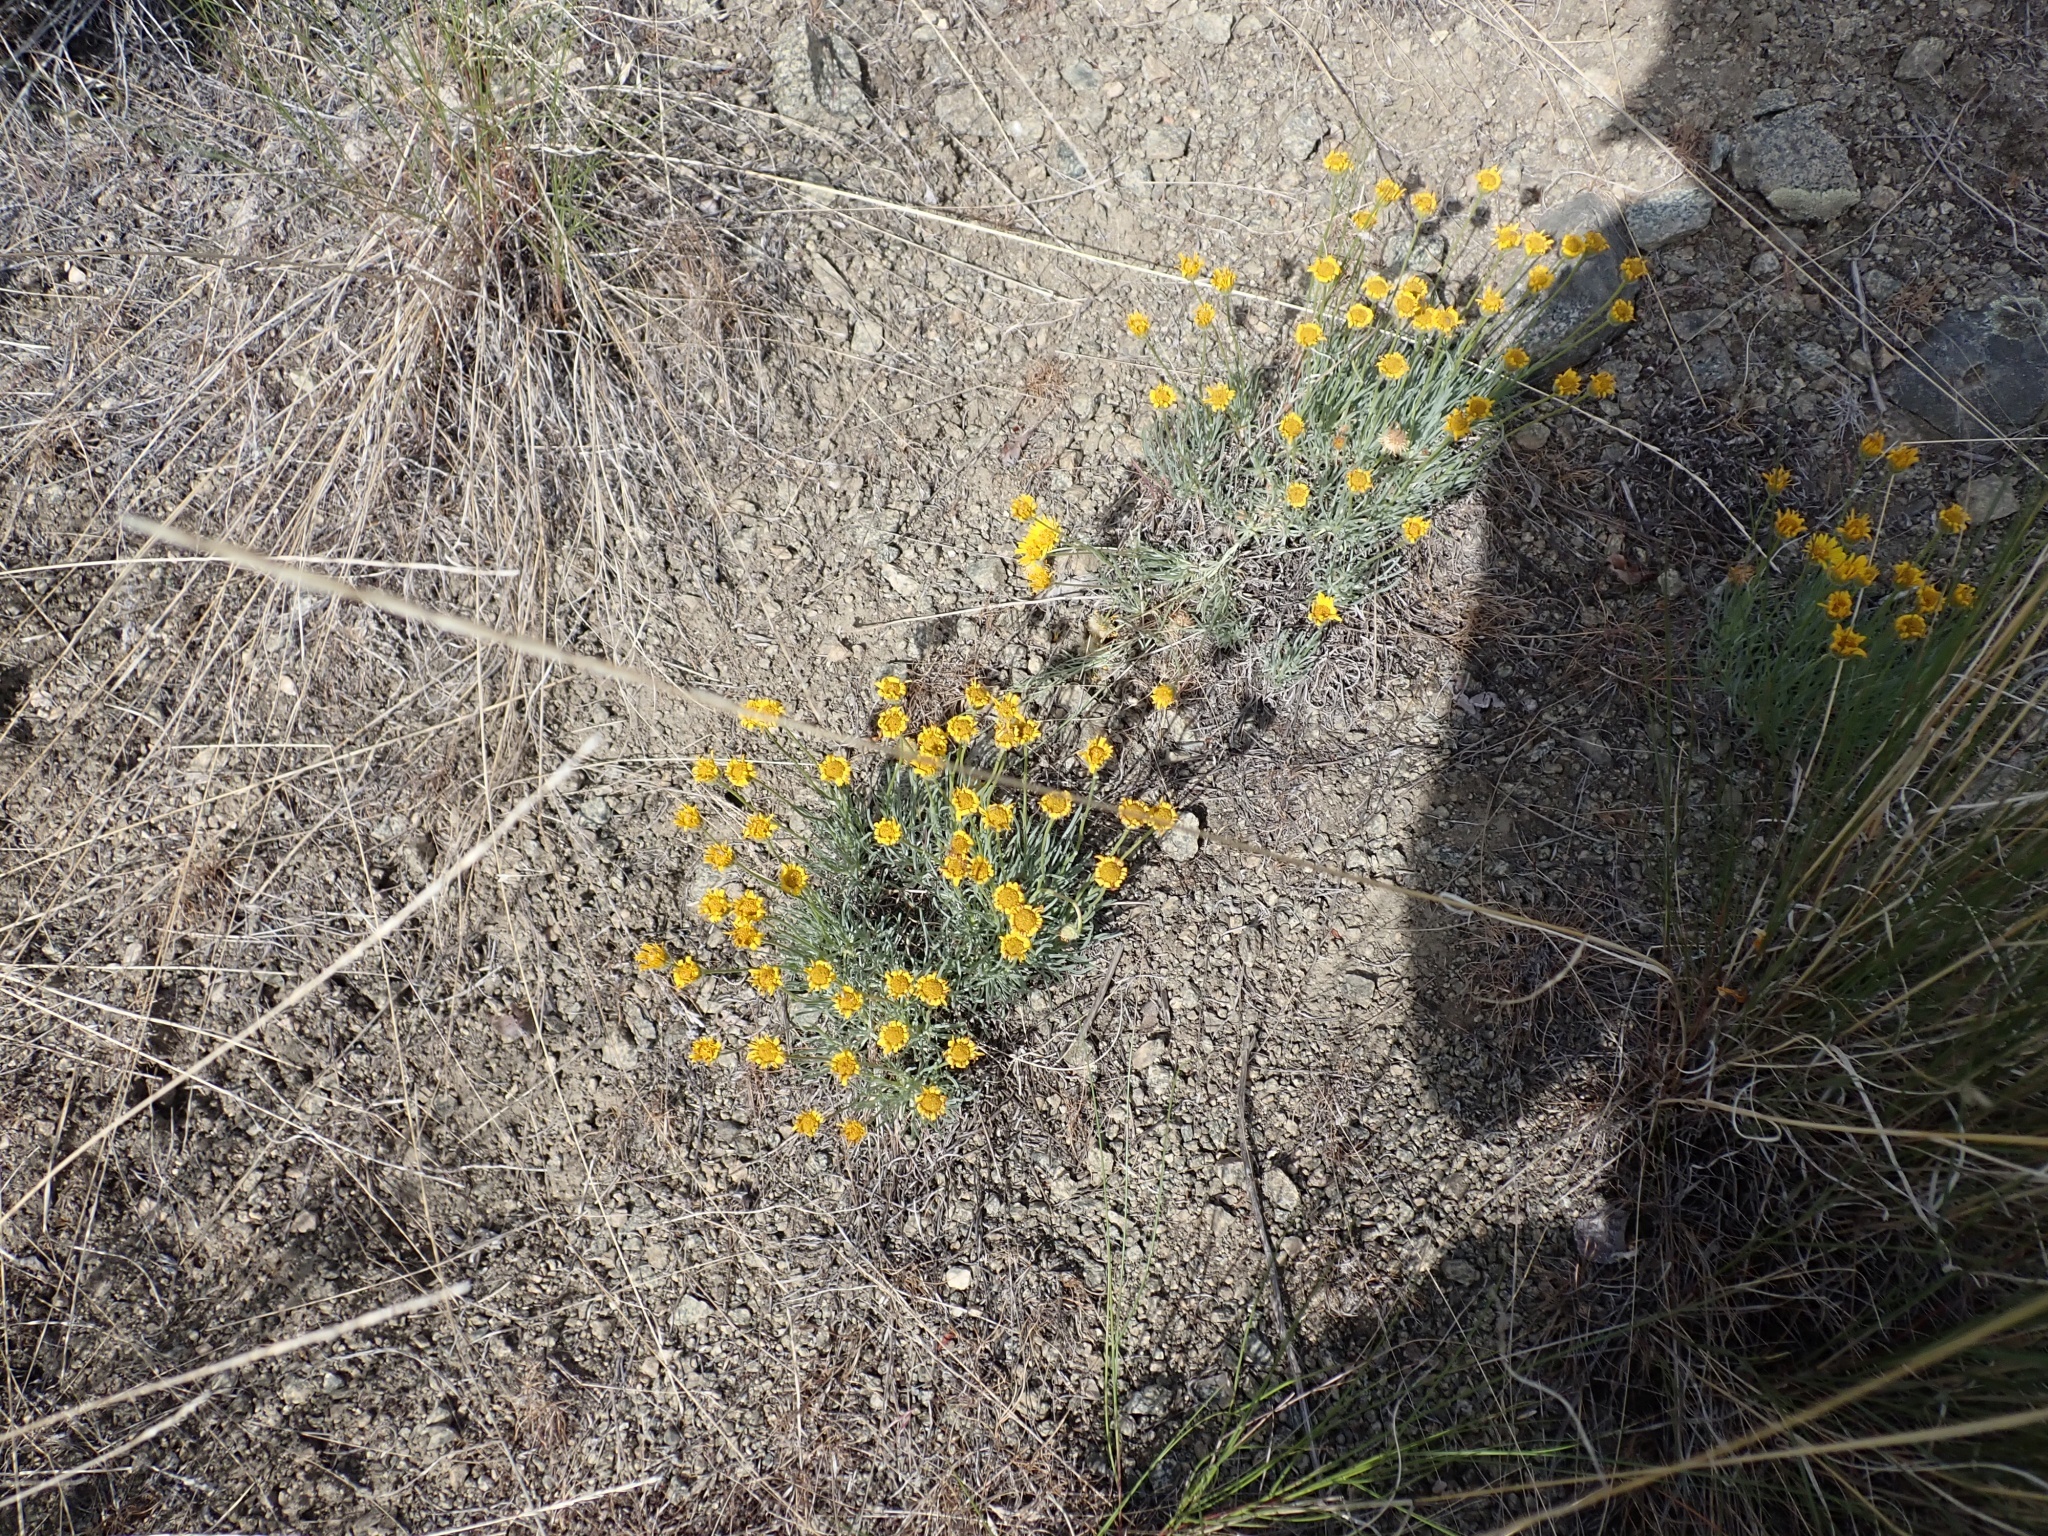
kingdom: Plantae
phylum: Tracheophyta
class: Magnoliopsida
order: Asterales
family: Asteraceae
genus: Erigeron
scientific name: Erigeron linearis
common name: Desert yellow fleabane
